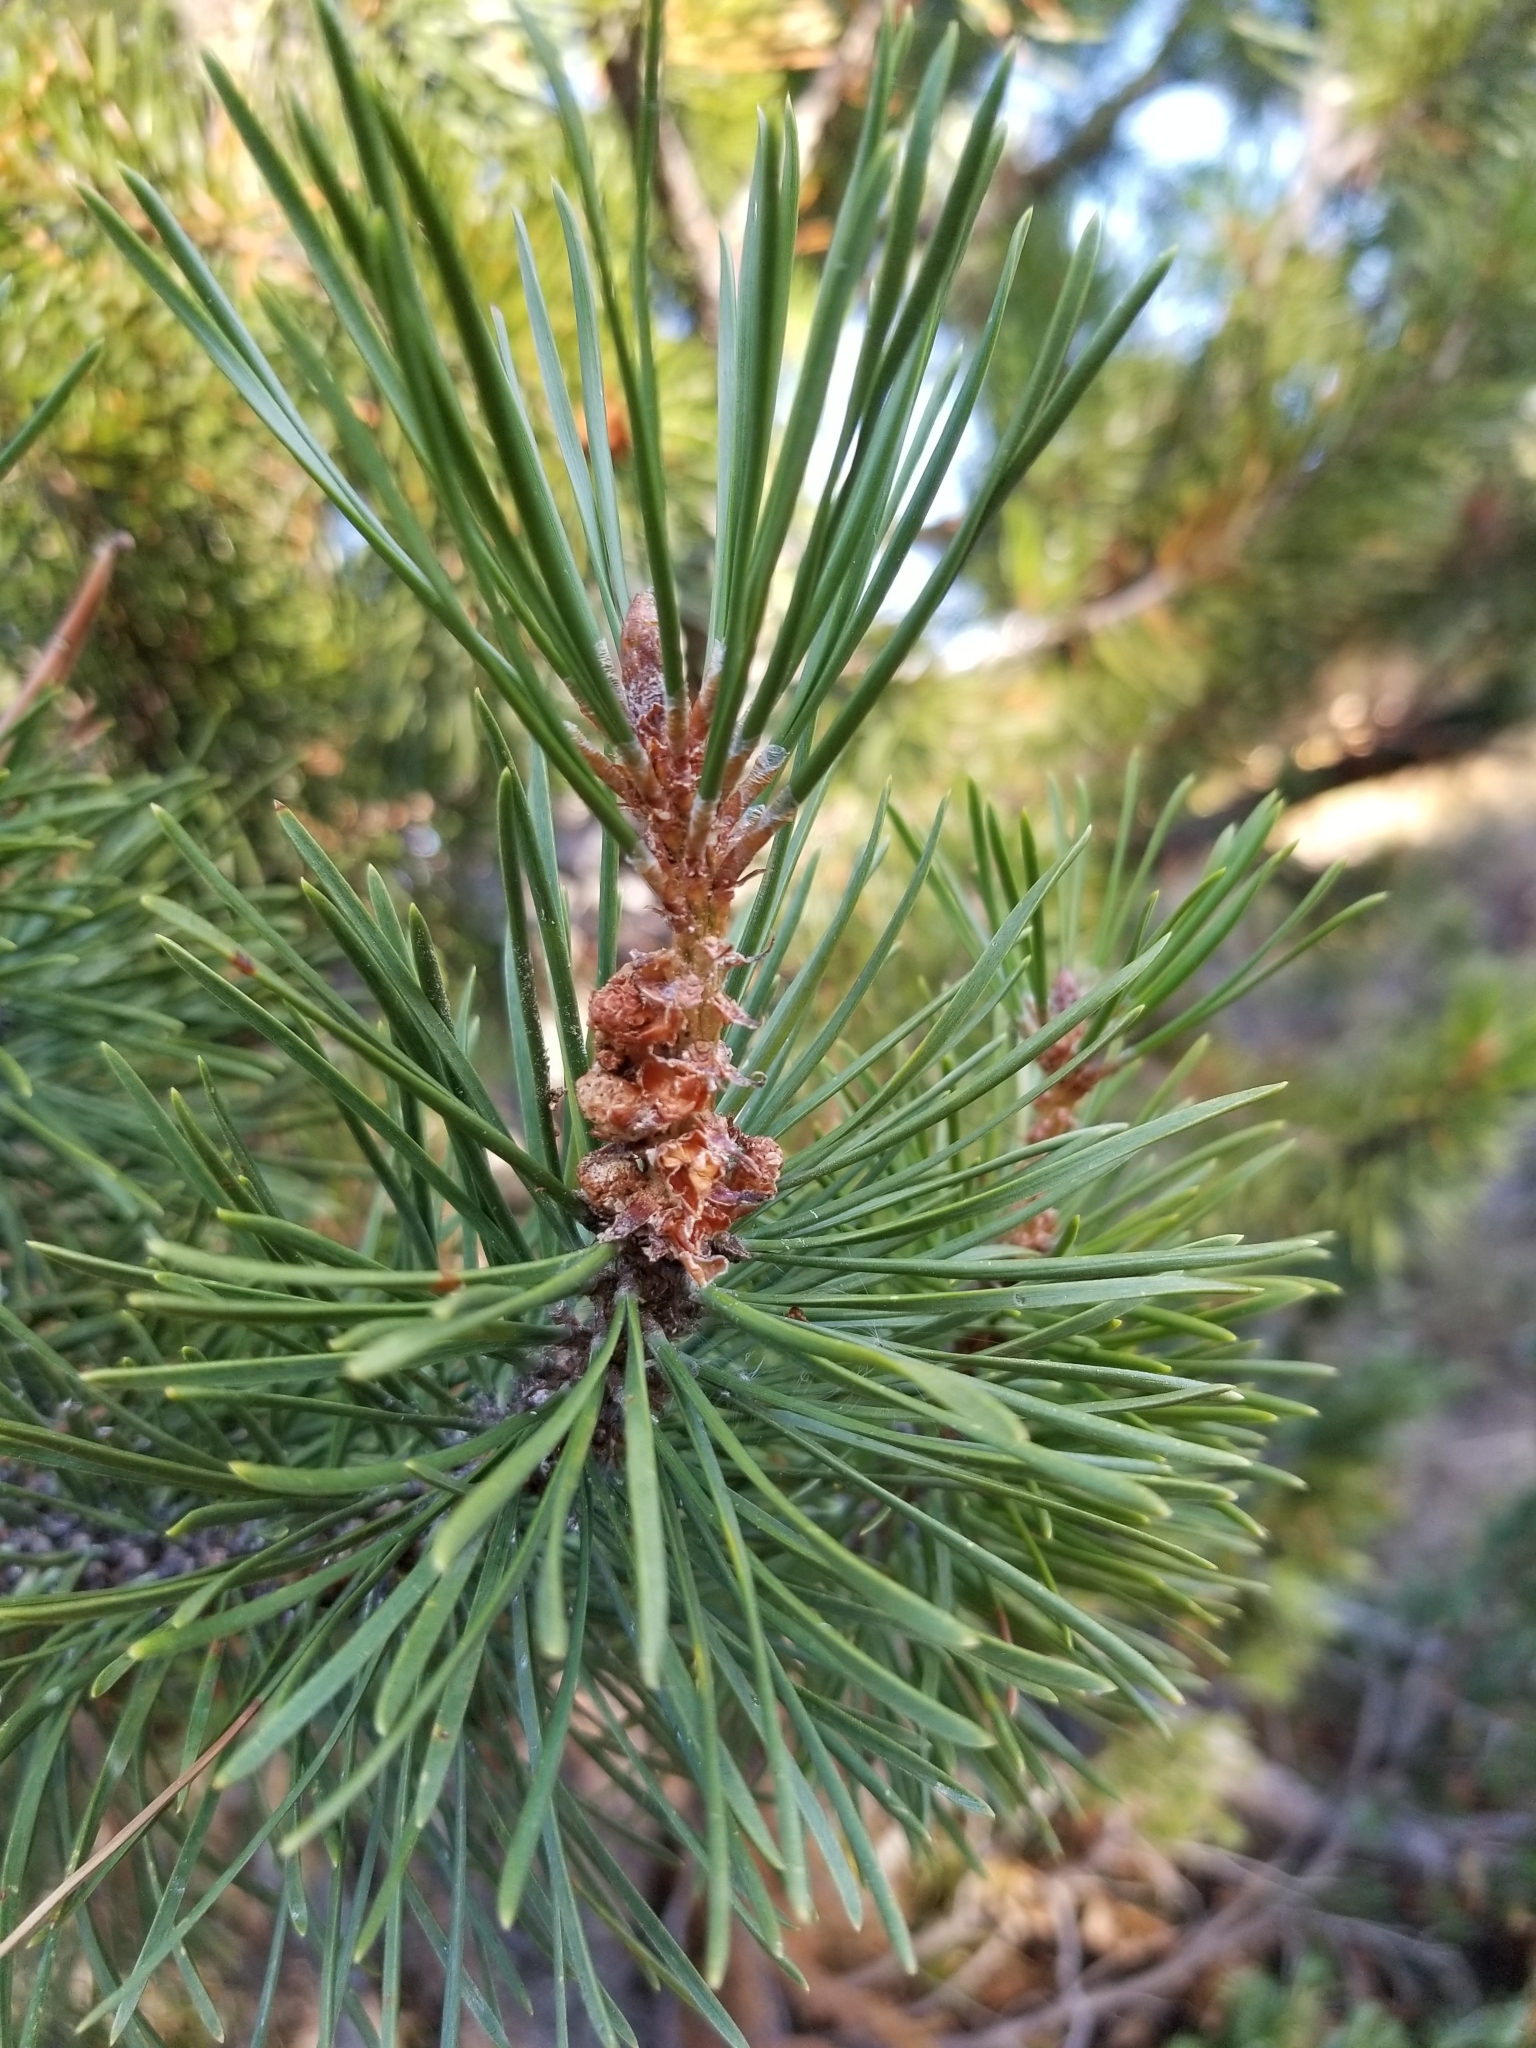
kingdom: Plantae
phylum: Tracheophyta
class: Pinopsida
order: Pinales
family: Pinaceae
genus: Pinus
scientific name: Pinus contorta
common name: Lodgepole pine
